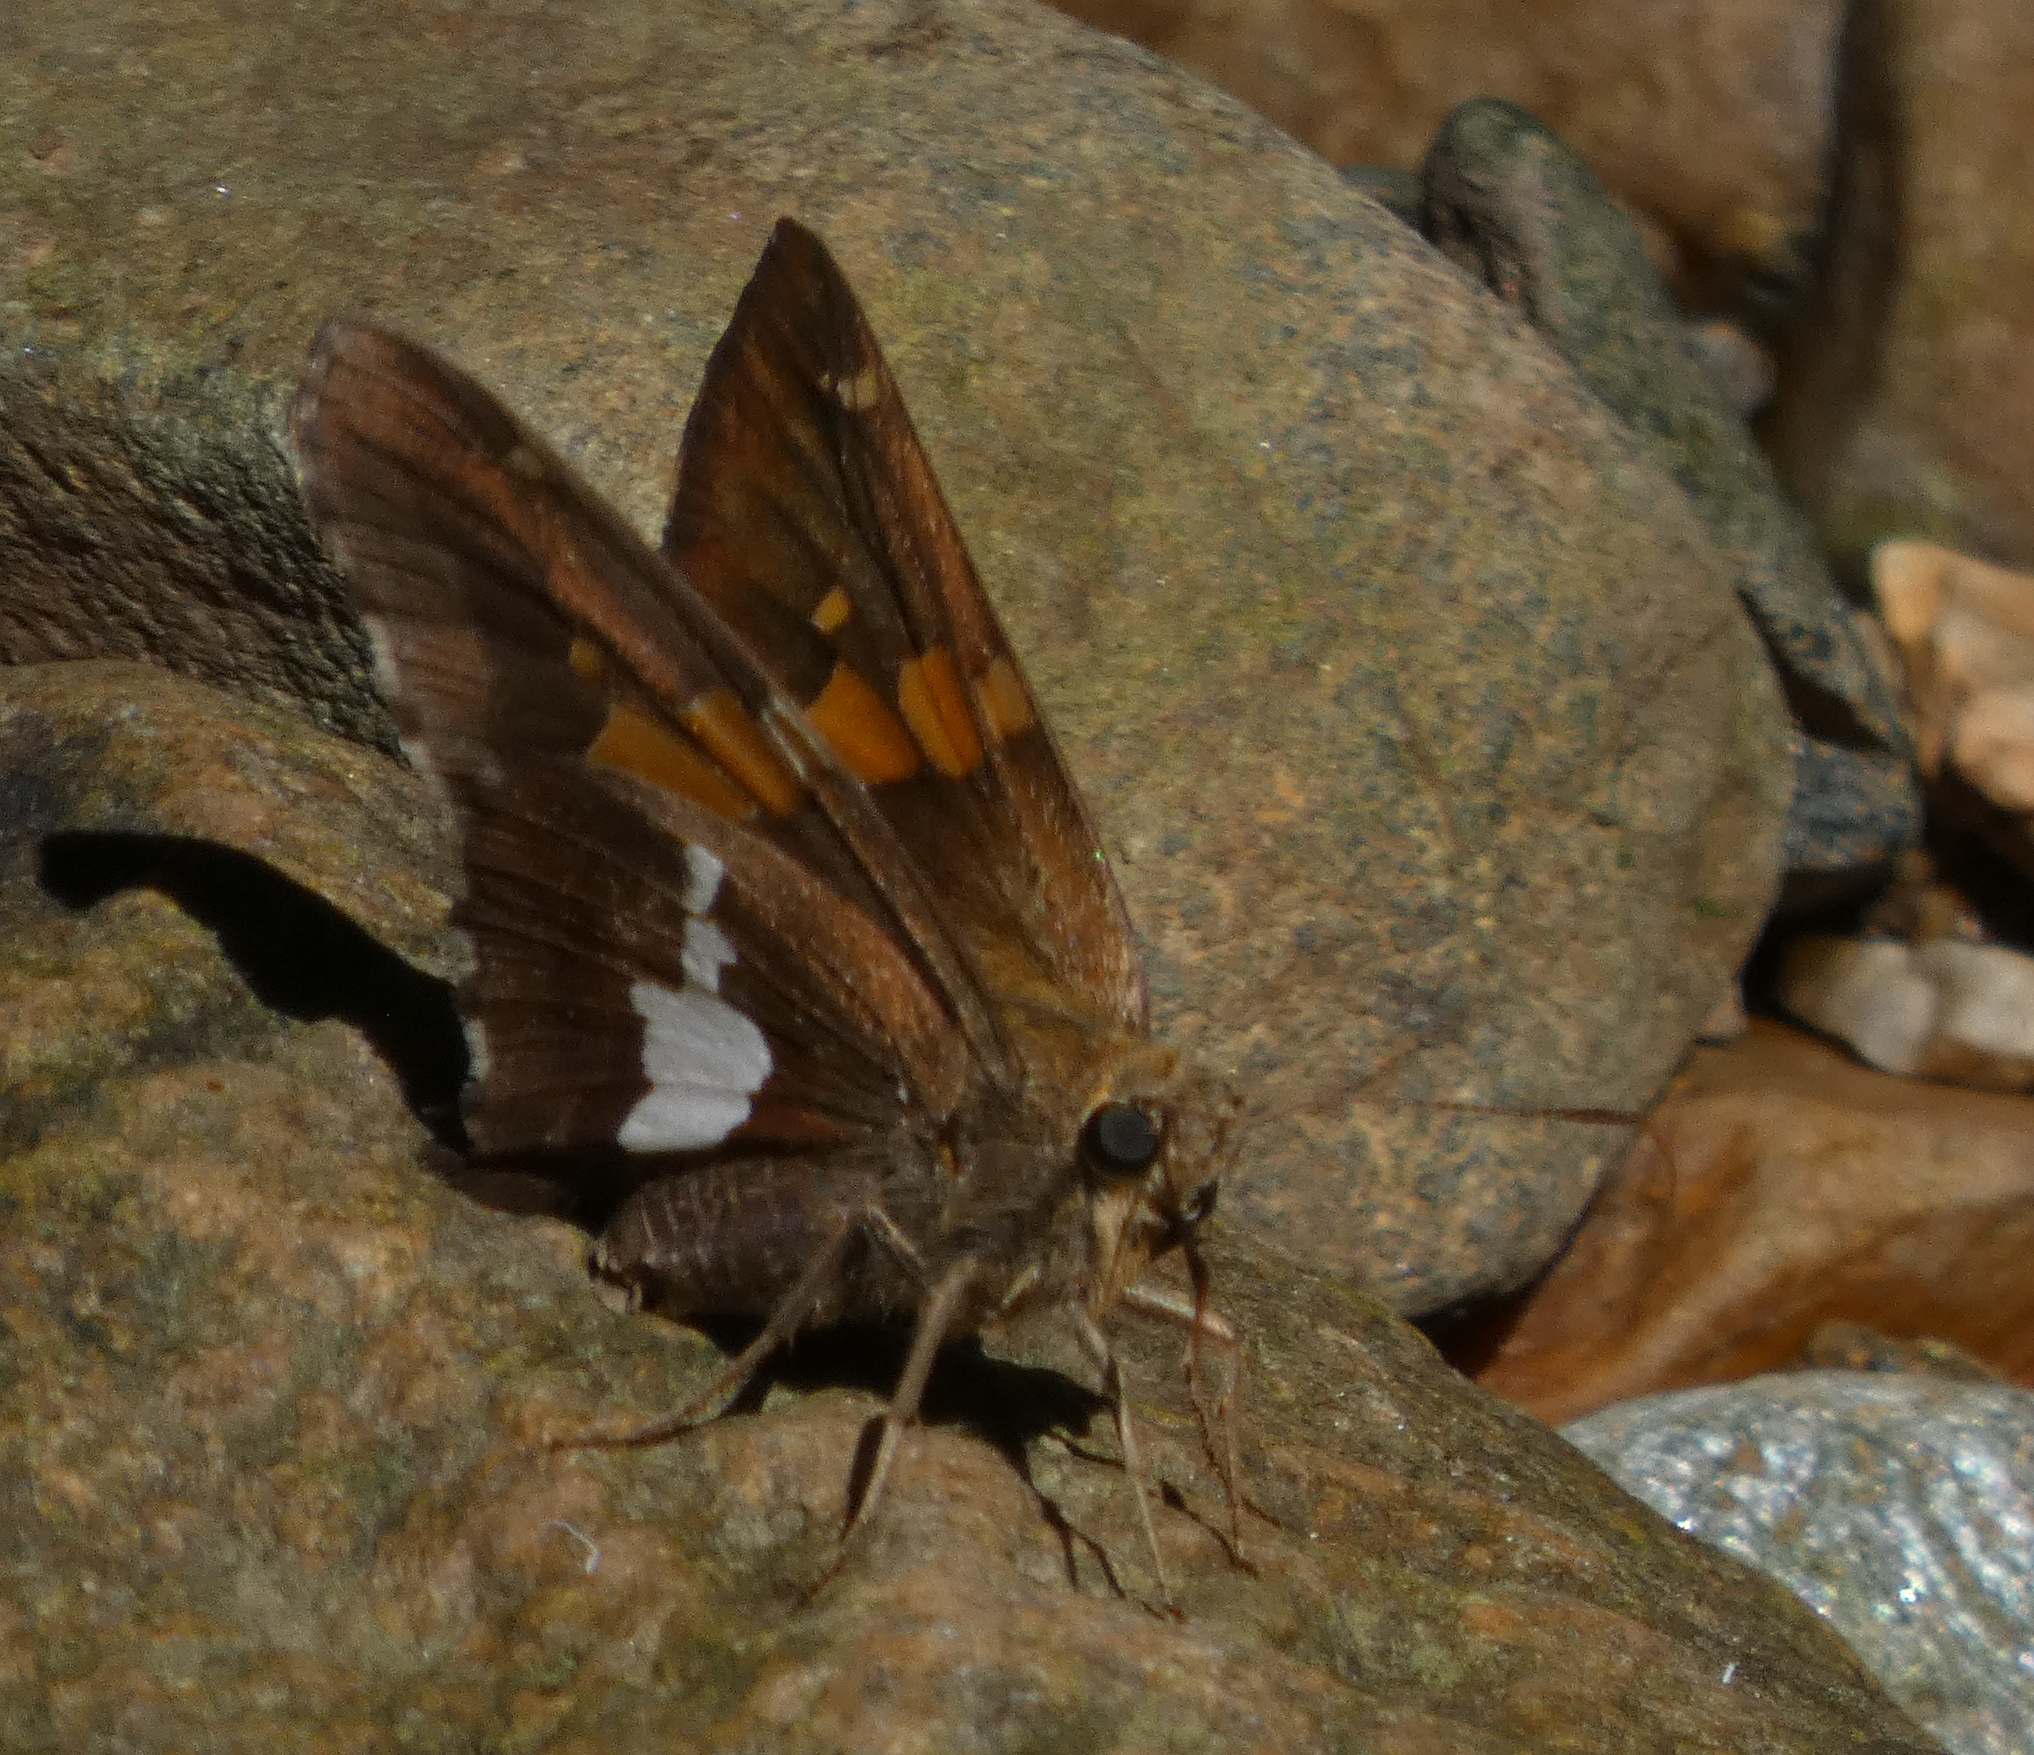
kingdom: Animalia
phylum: Arthropoda
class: Insecta
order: Lepidoptera
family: Hesperiidae
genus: Epargyreus
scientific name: Epargyreus clarus
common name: Silver-spotted skipper
